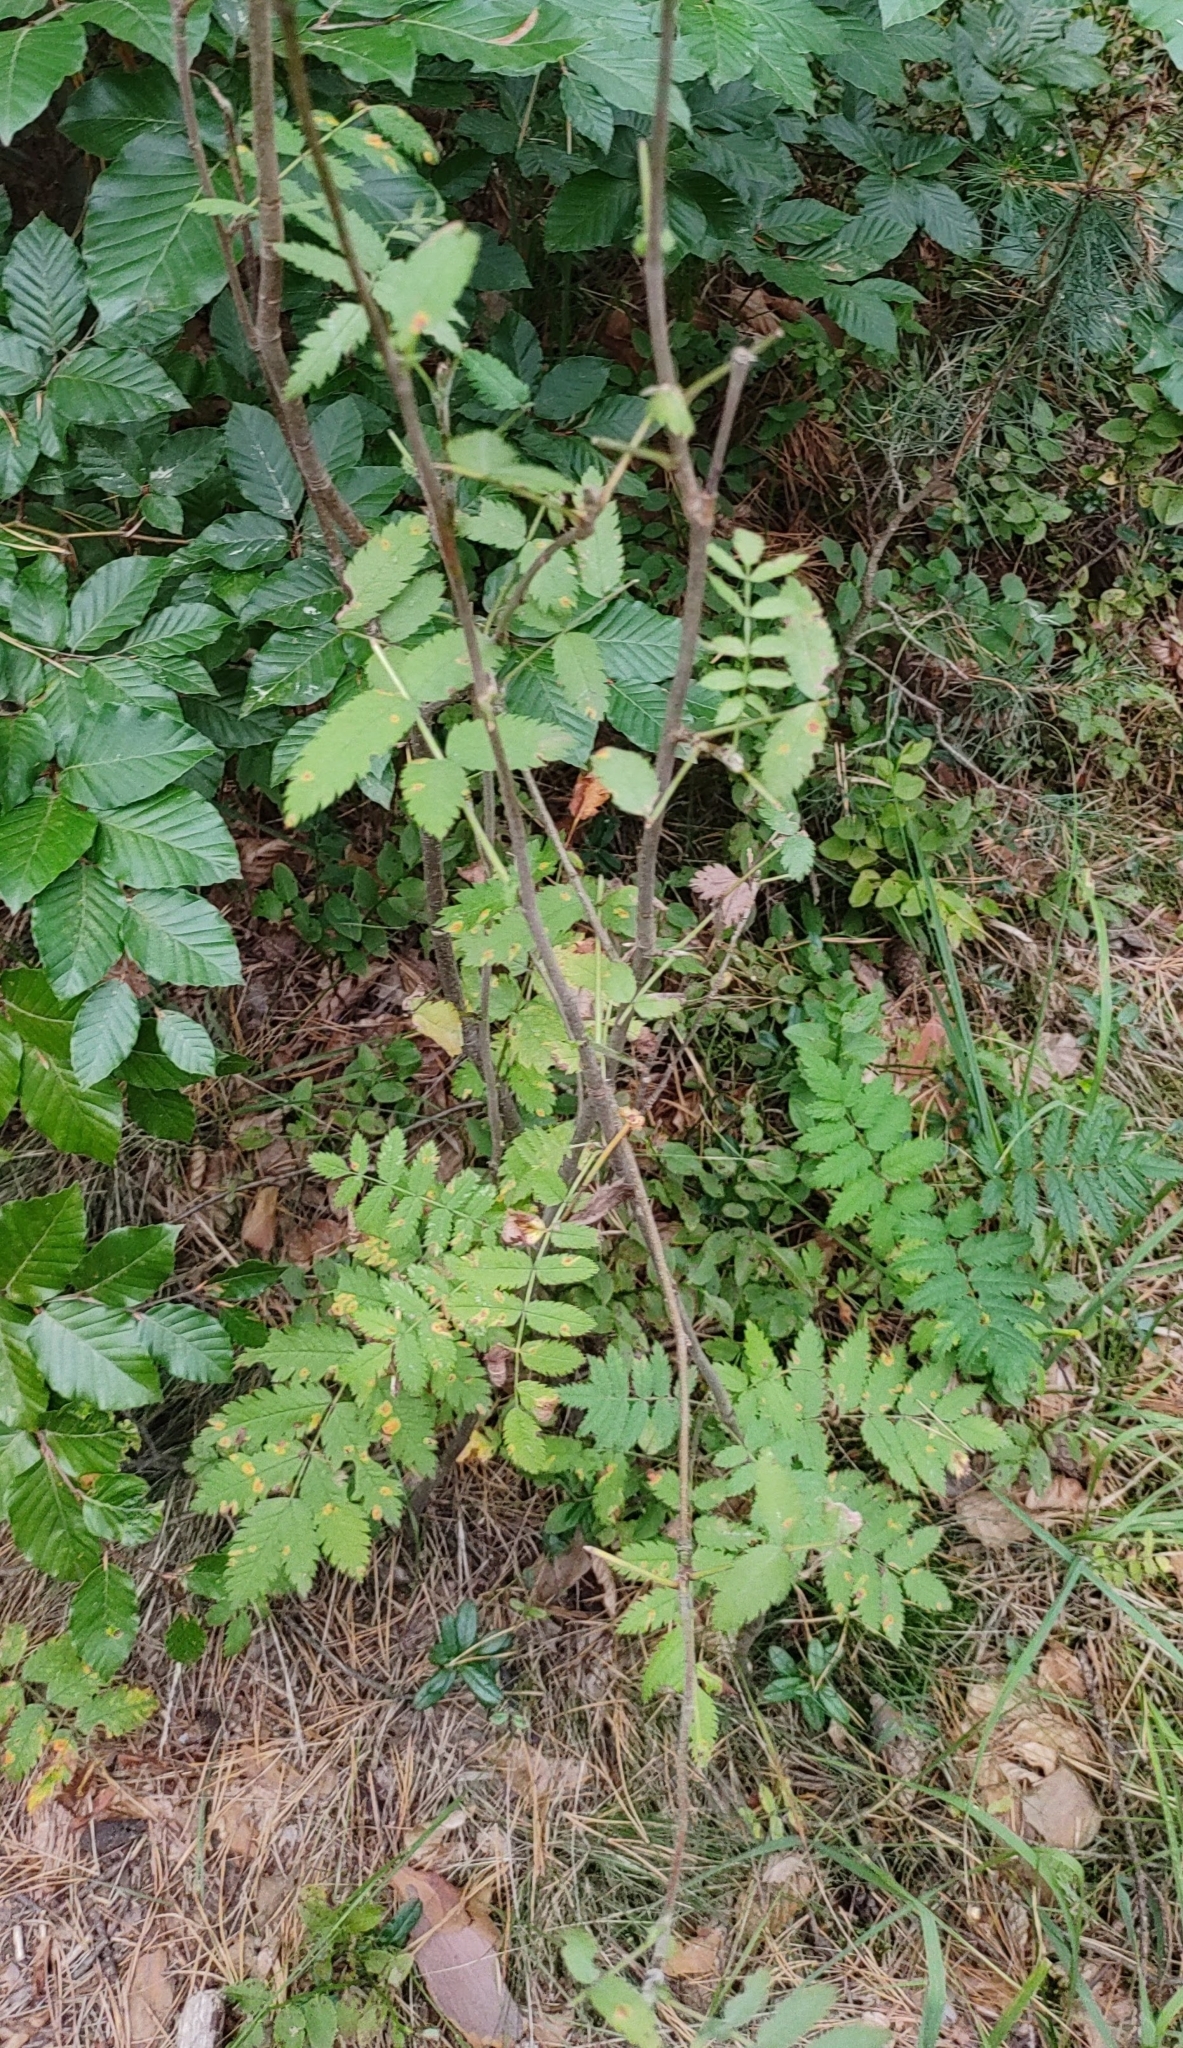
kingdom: Plantae
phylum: Tracheophyta
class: Magnoliopsida
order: Rosales
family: Rosaceae
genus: Sorbus
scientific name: Sorbus aucuparia
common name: Rowan
